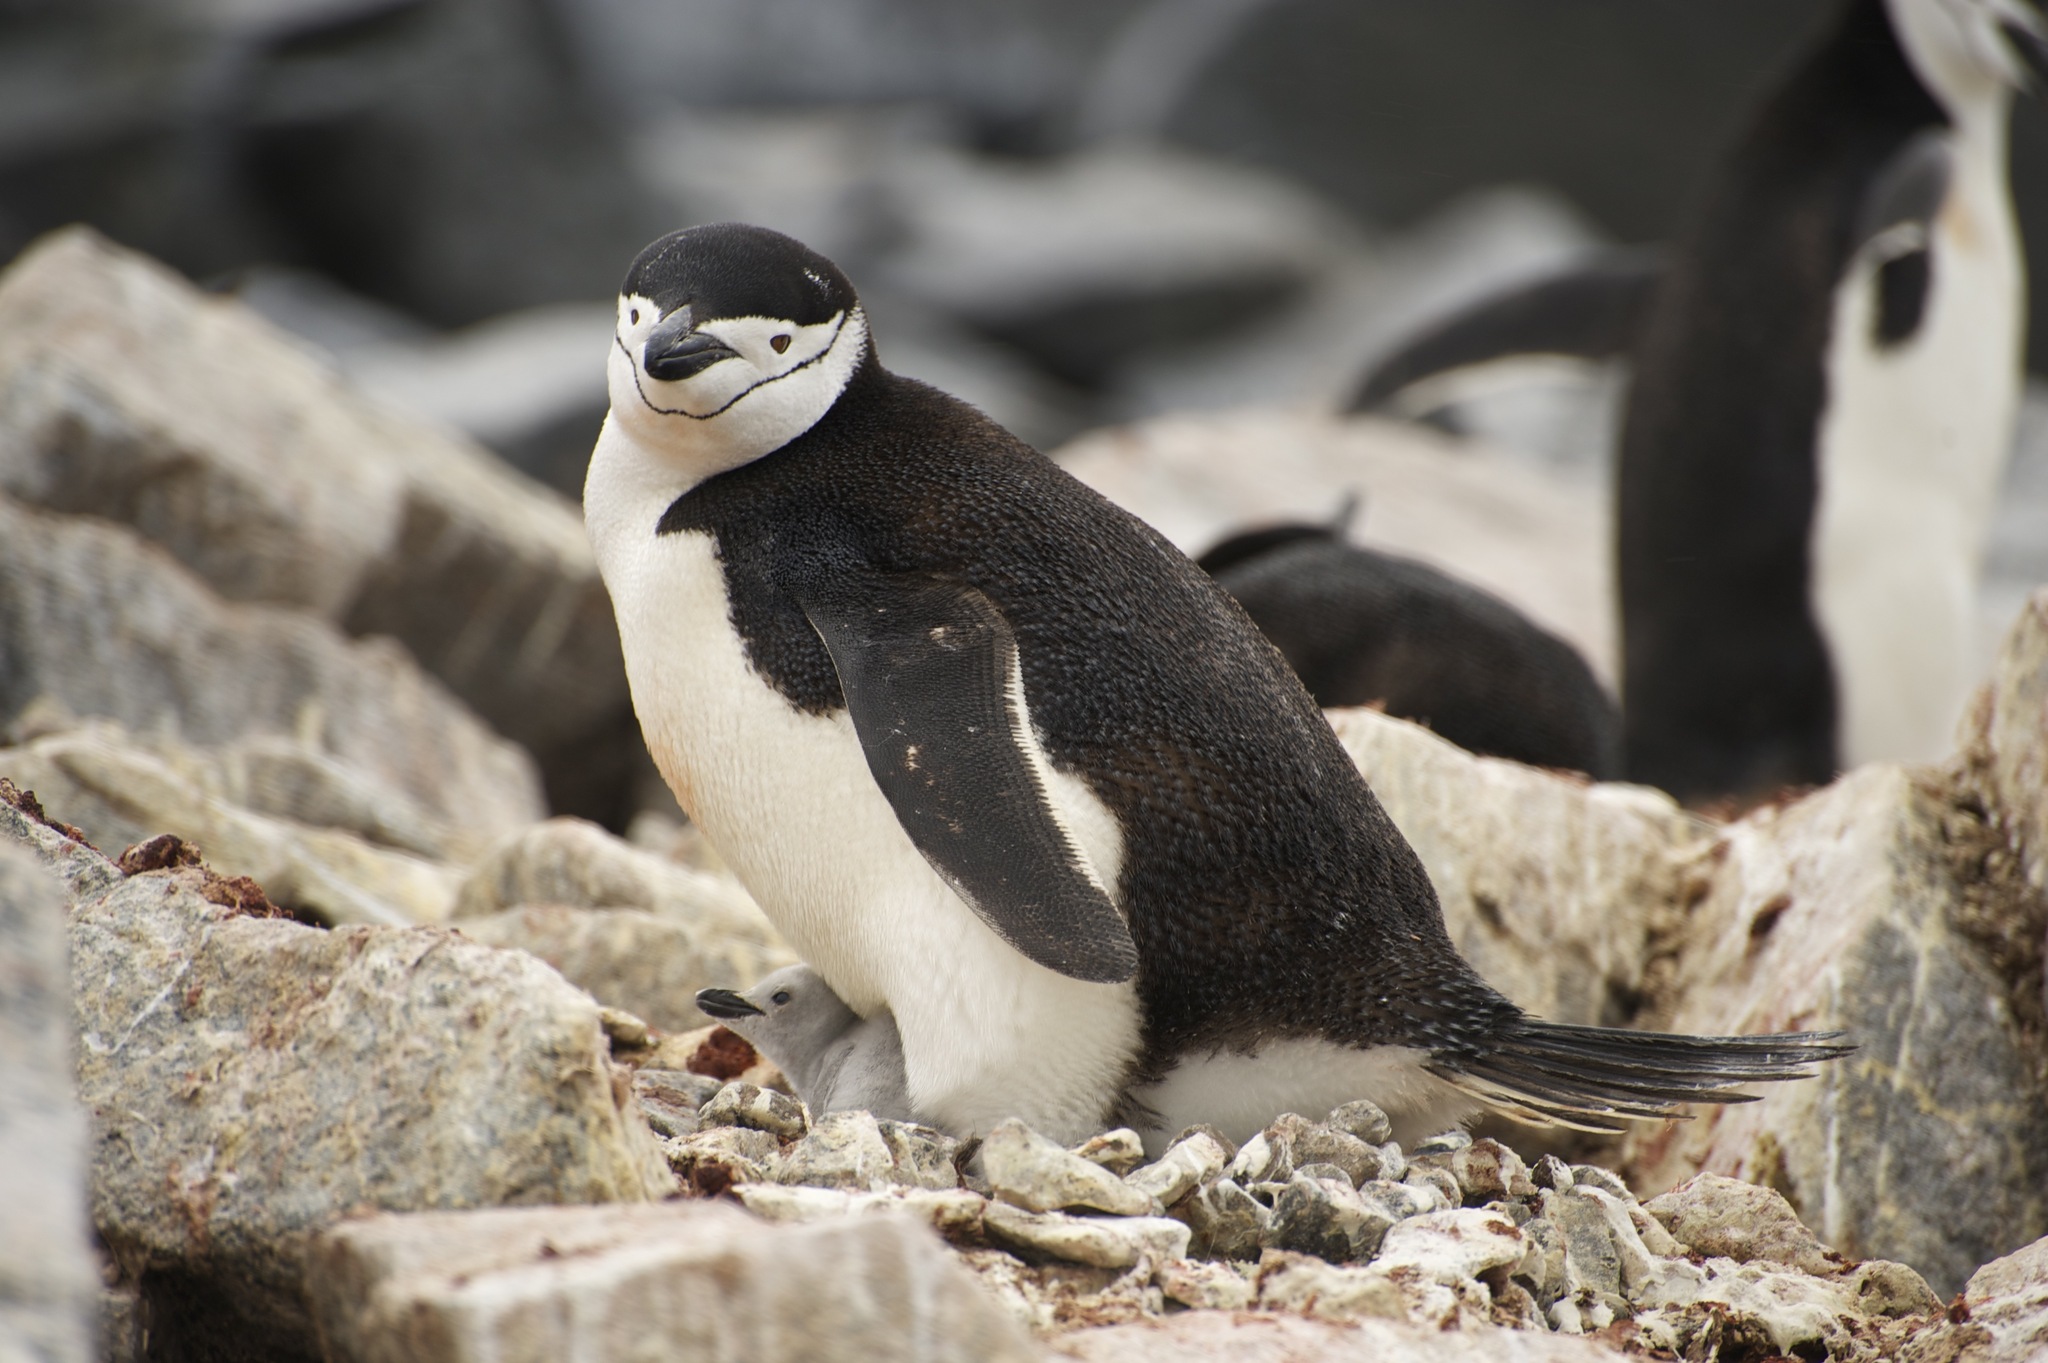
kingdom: Animalia
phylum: Chordata
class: Aves
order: Sphenisciformes
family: Spheniscidae
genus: Pygoscelis
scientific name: Pygoscelis antarcticus
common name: Chinstrap penguin
